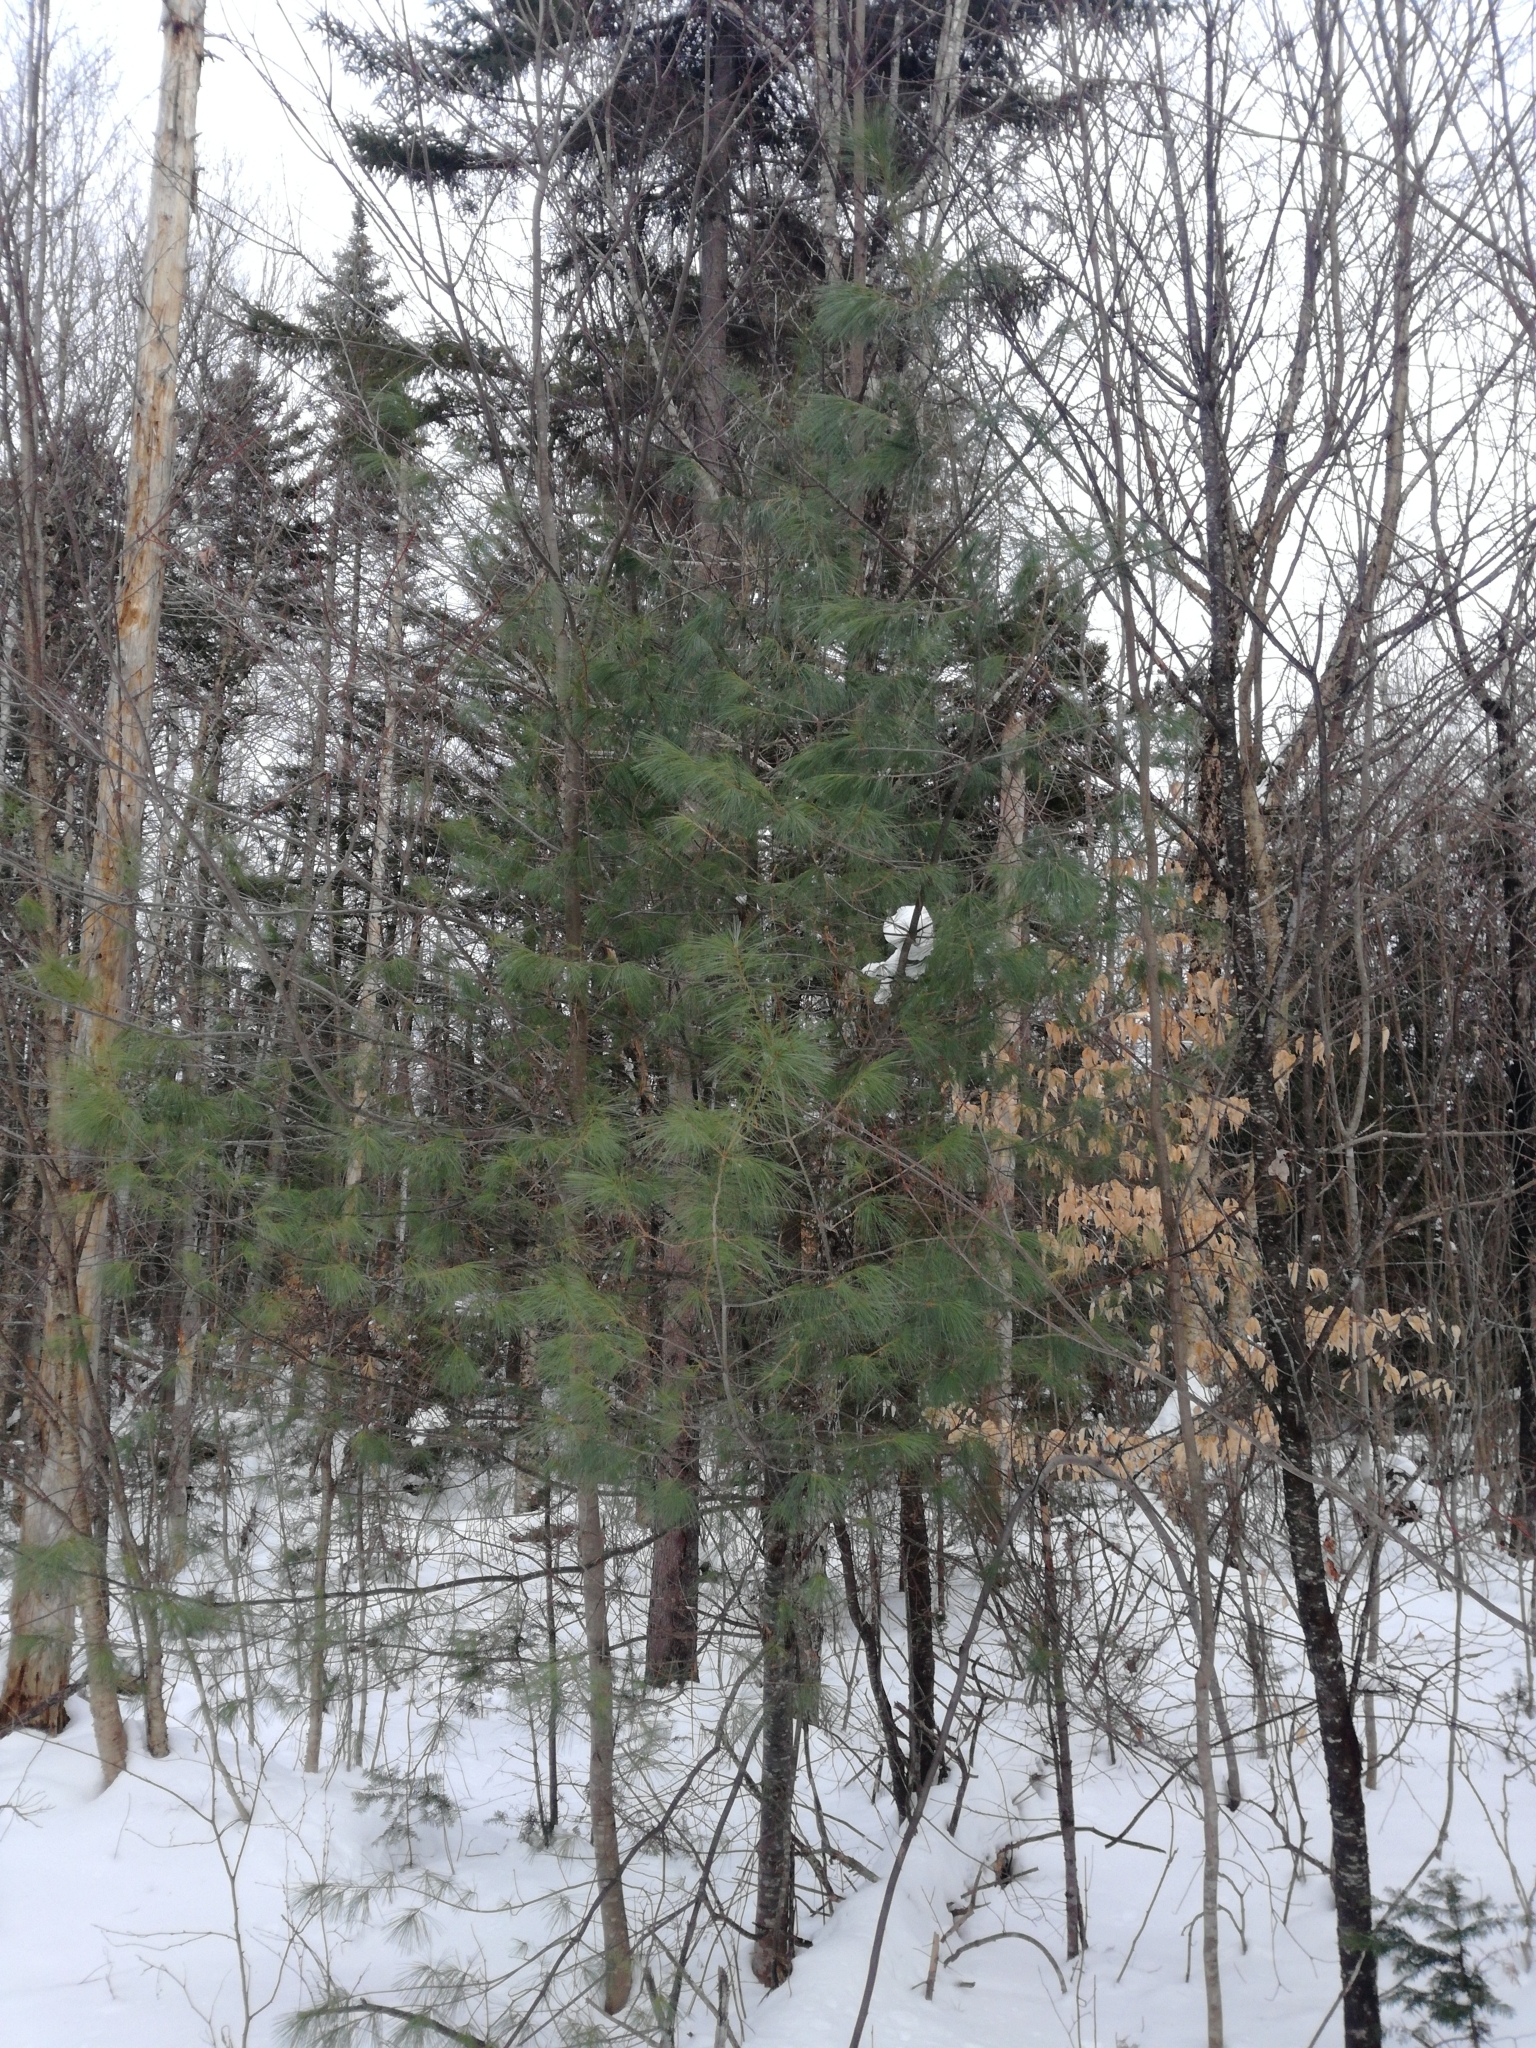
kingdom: Plantae
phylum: Tracheophyta
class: Pinopsida
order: Pinales
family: Pinaceae
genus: Pinus
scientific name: Pinus strobus
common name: Weymouth pine
